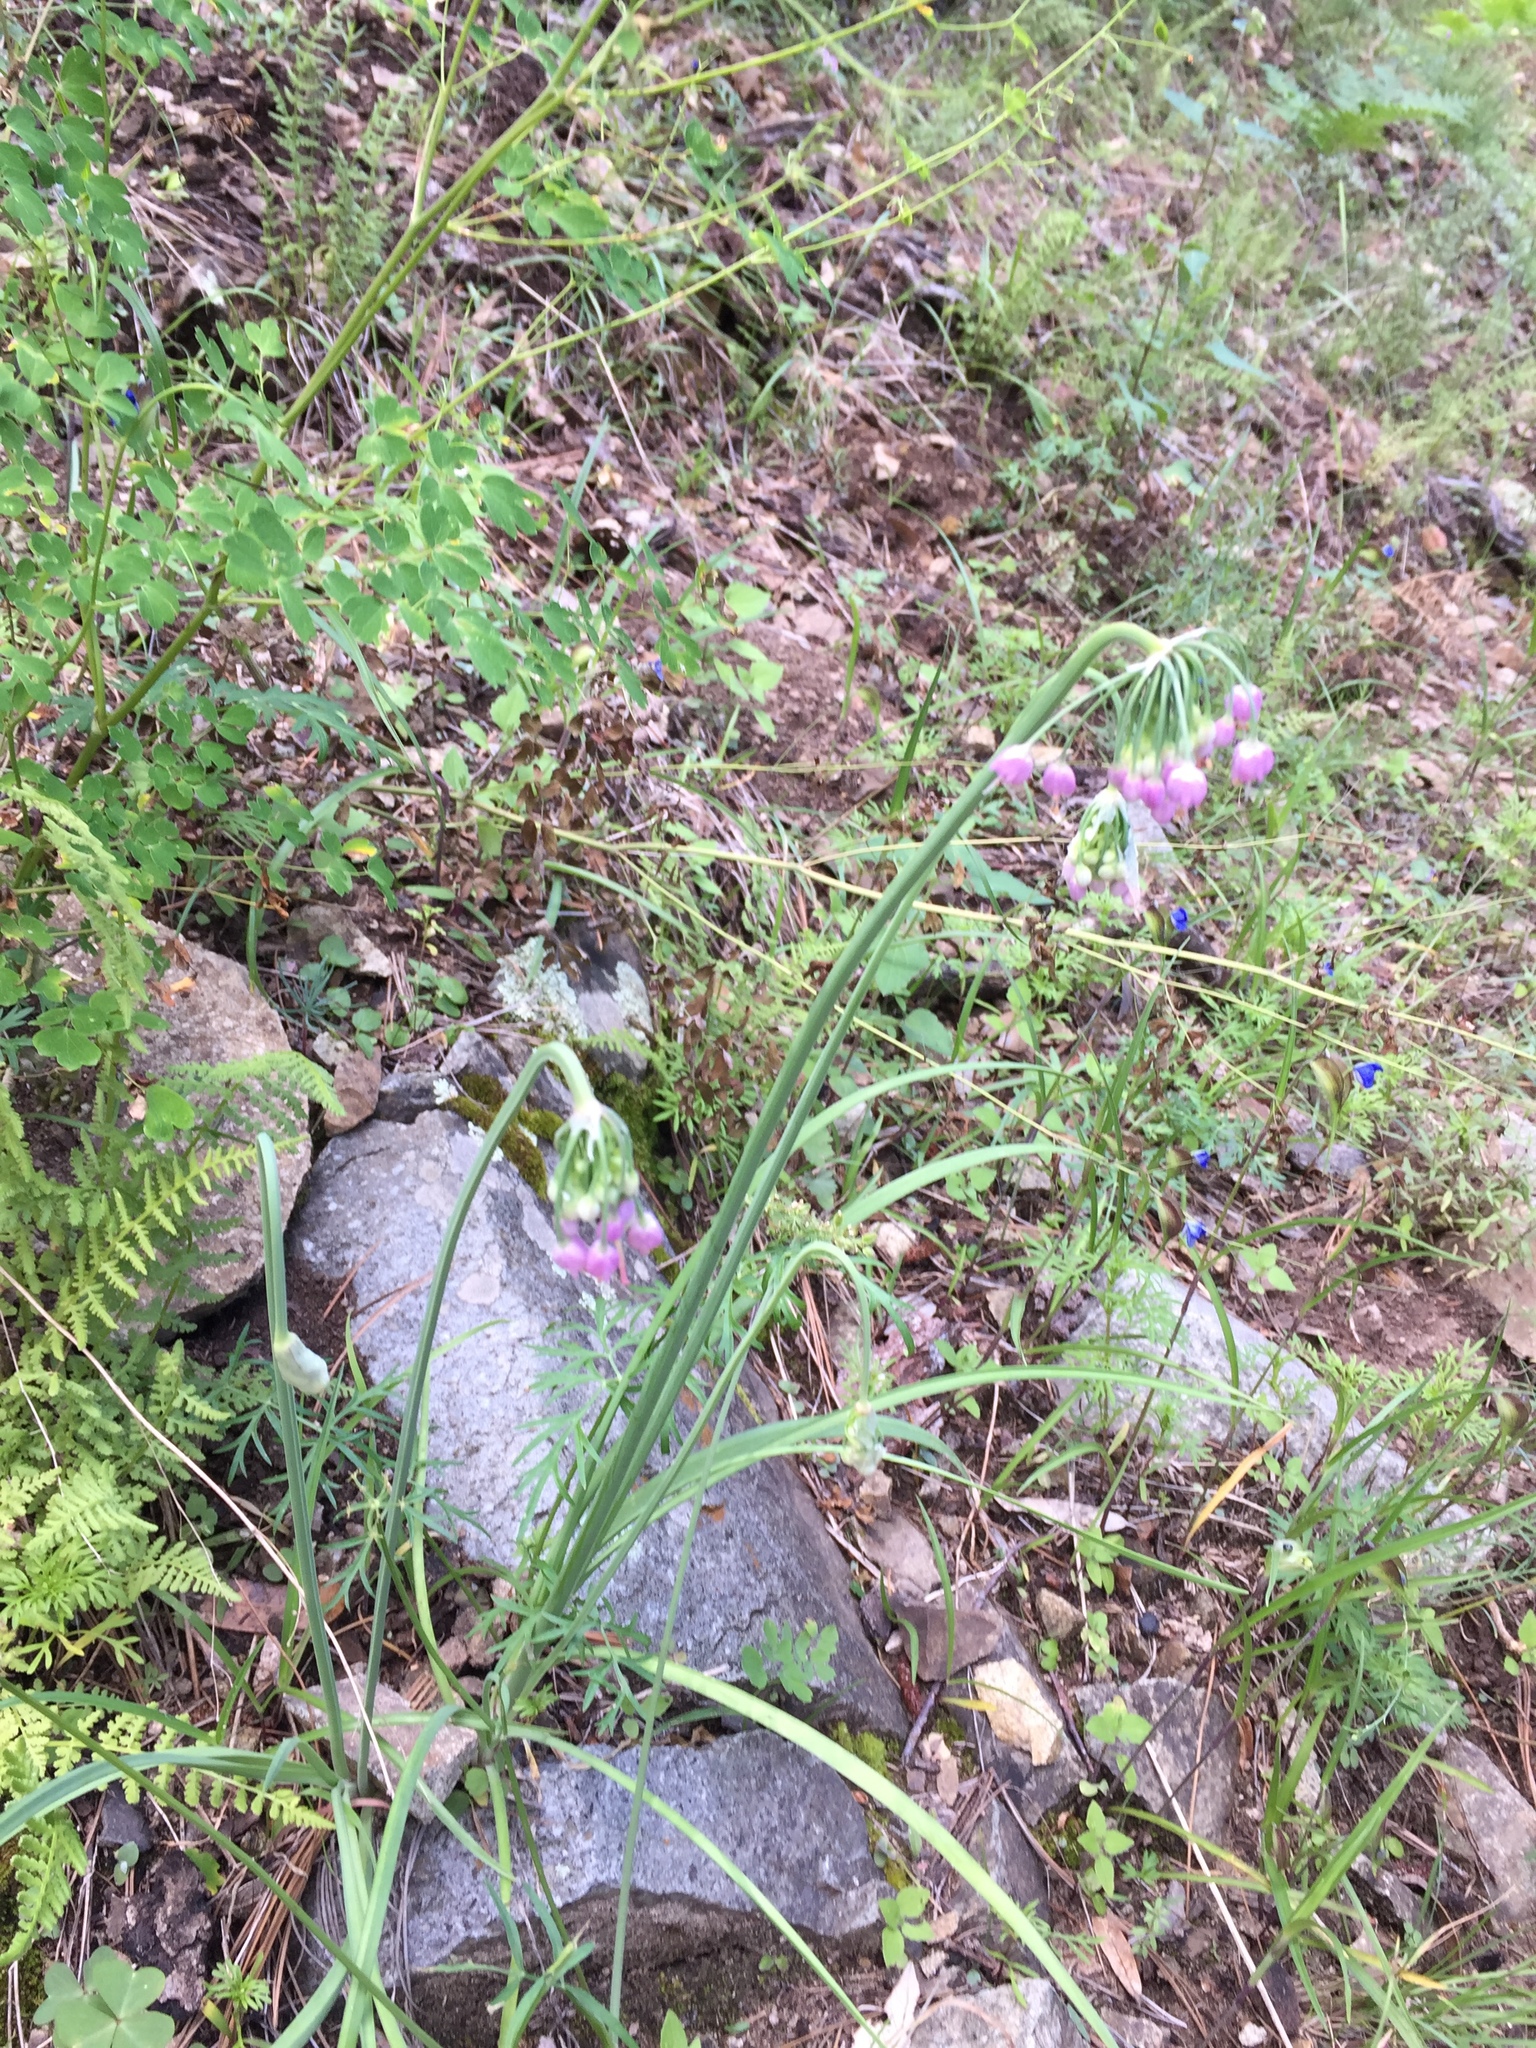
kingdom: Plantae
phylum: Tracheophyta
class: Liliopsida
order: Asparagales
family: Amaryllidaceae
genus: Allium
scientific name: Allium cernuum
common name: Nodding onion
